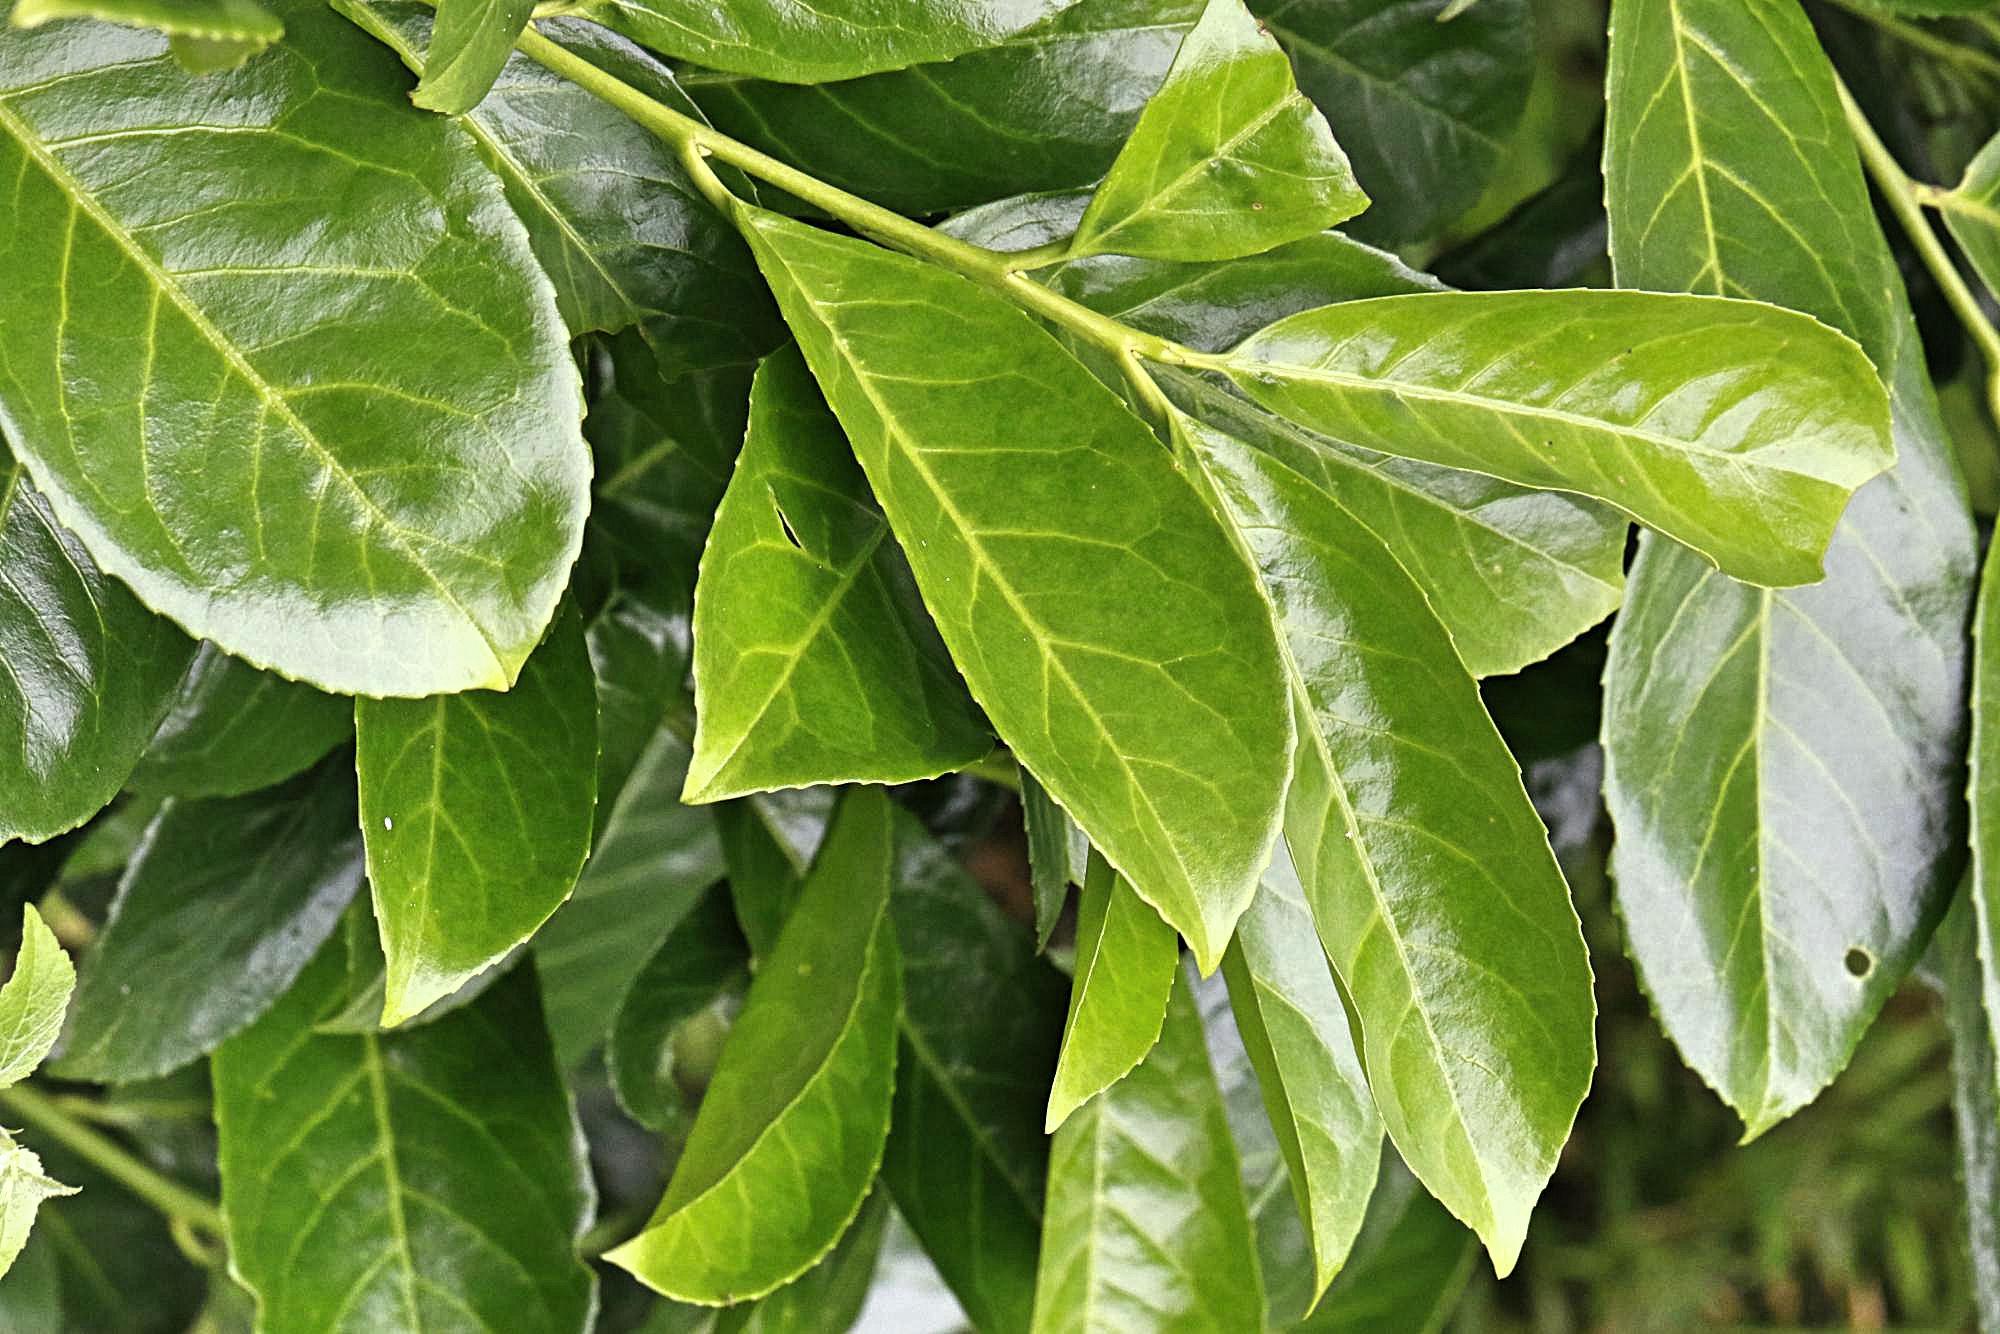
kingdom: Plantae
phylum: Tracheophyta
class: Magnoliopsida
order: Rosales
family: Rosaceae
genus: Prunus
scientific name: Prunus laurocerasus
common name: Cherry laurel
